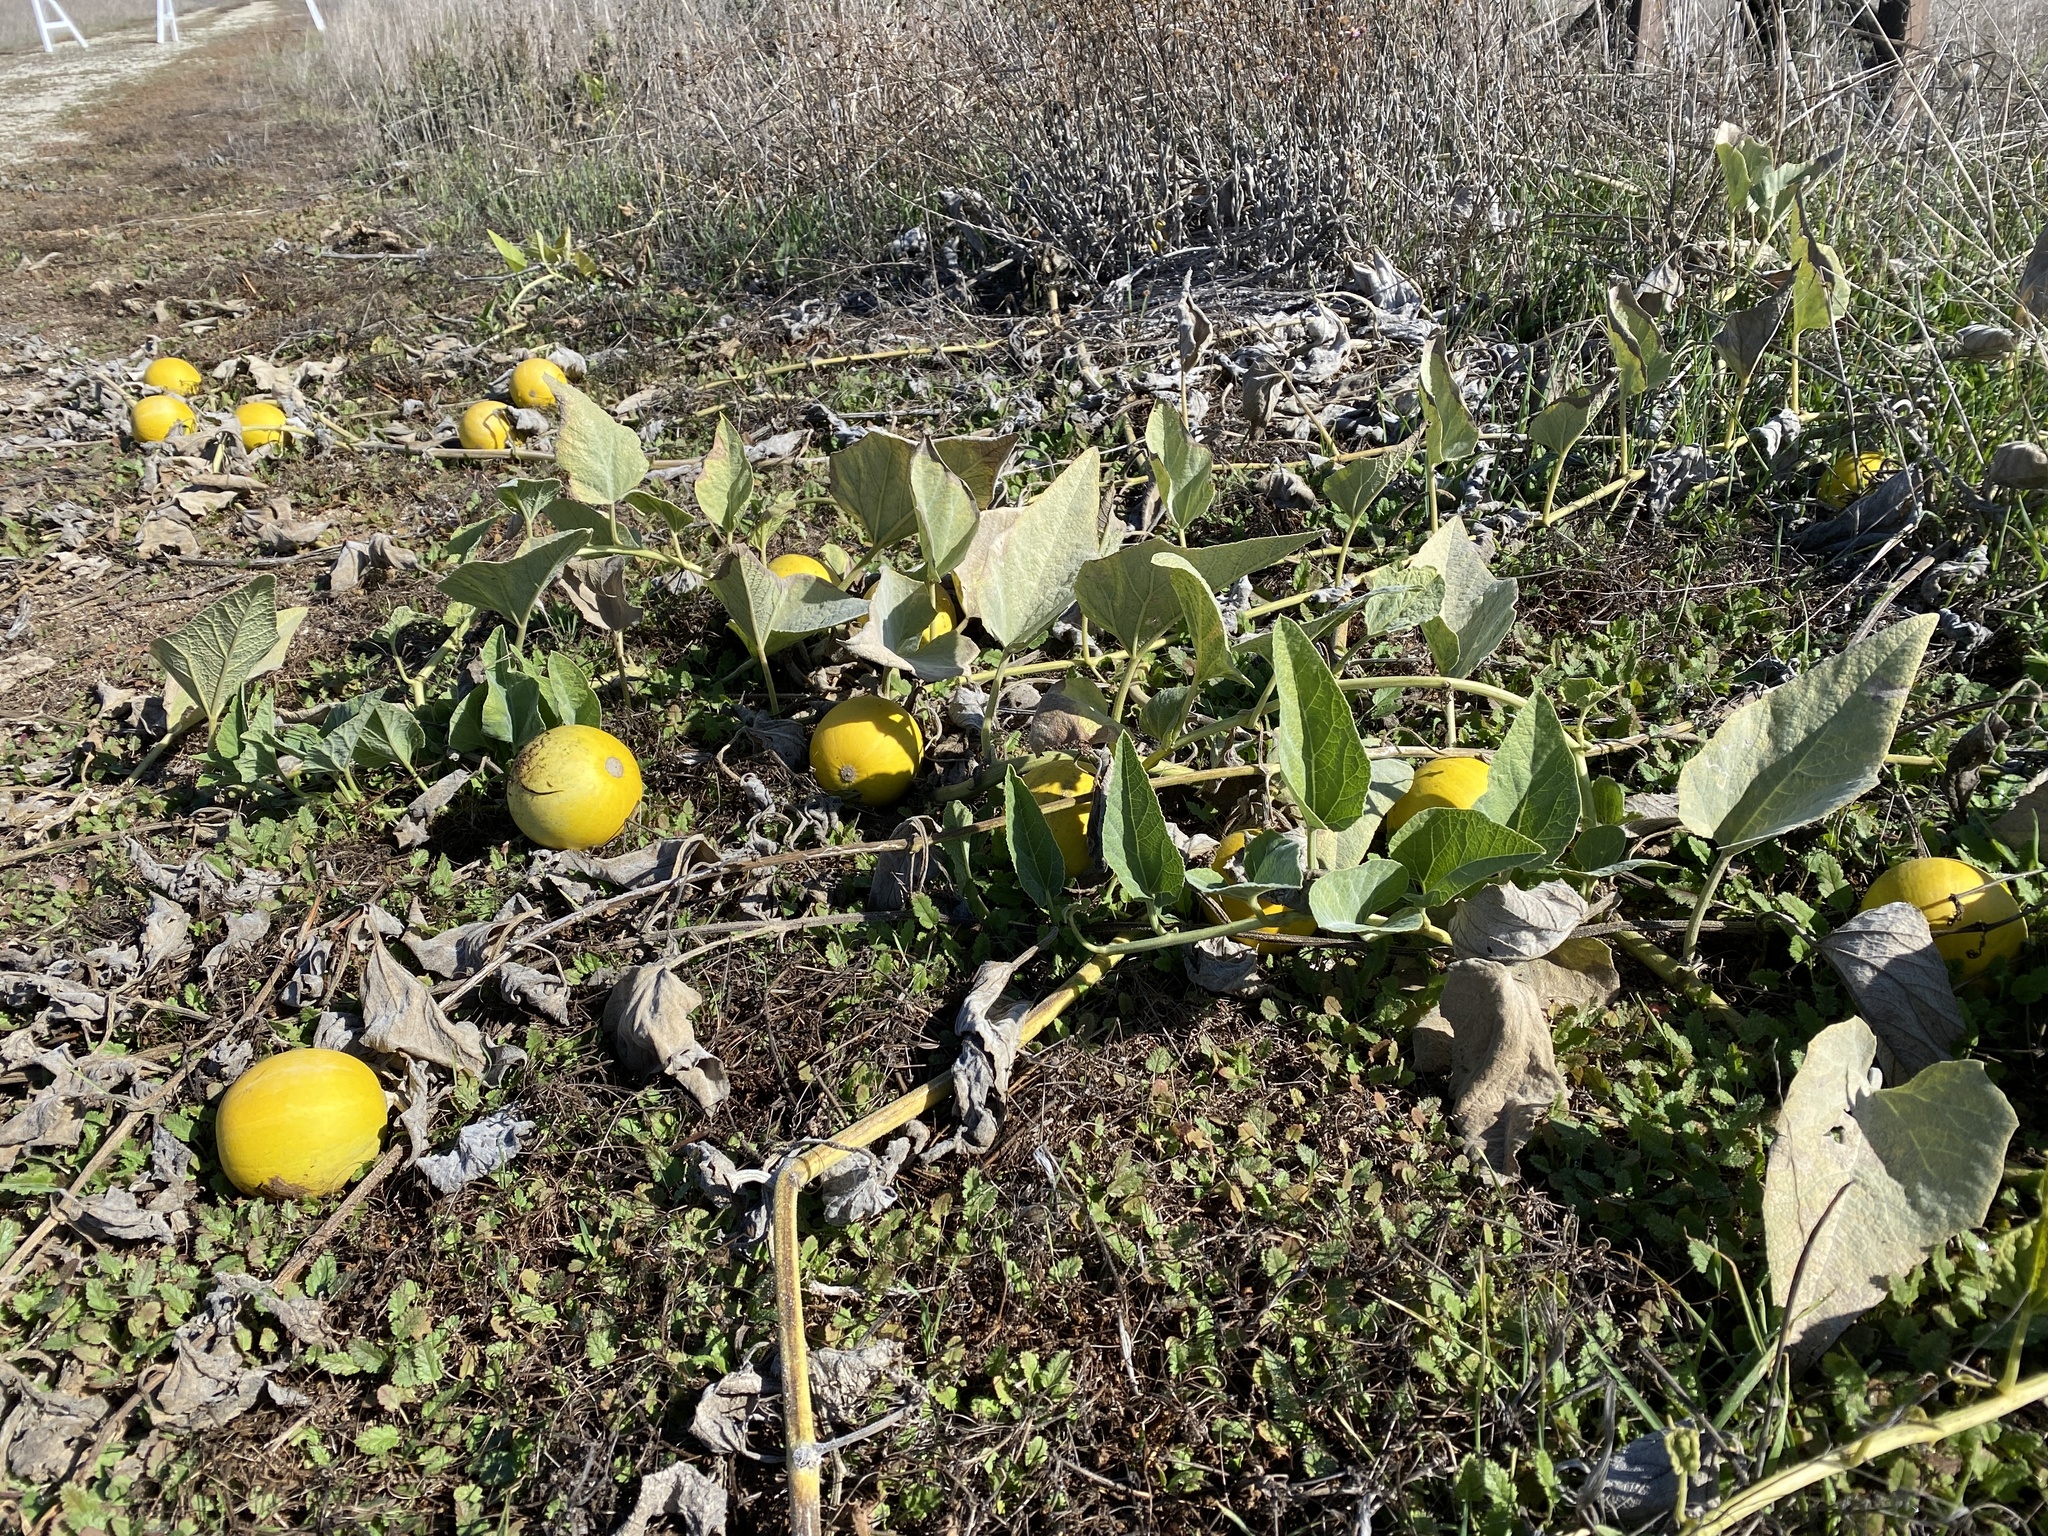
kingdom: Plantae
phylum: Tracheophyta
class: Magnoliopsida
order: Cucurbitales
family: Cucurbitaceae
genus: Cucurbita
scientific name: Cucurbita foetidissima
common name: Buffalo gourd
